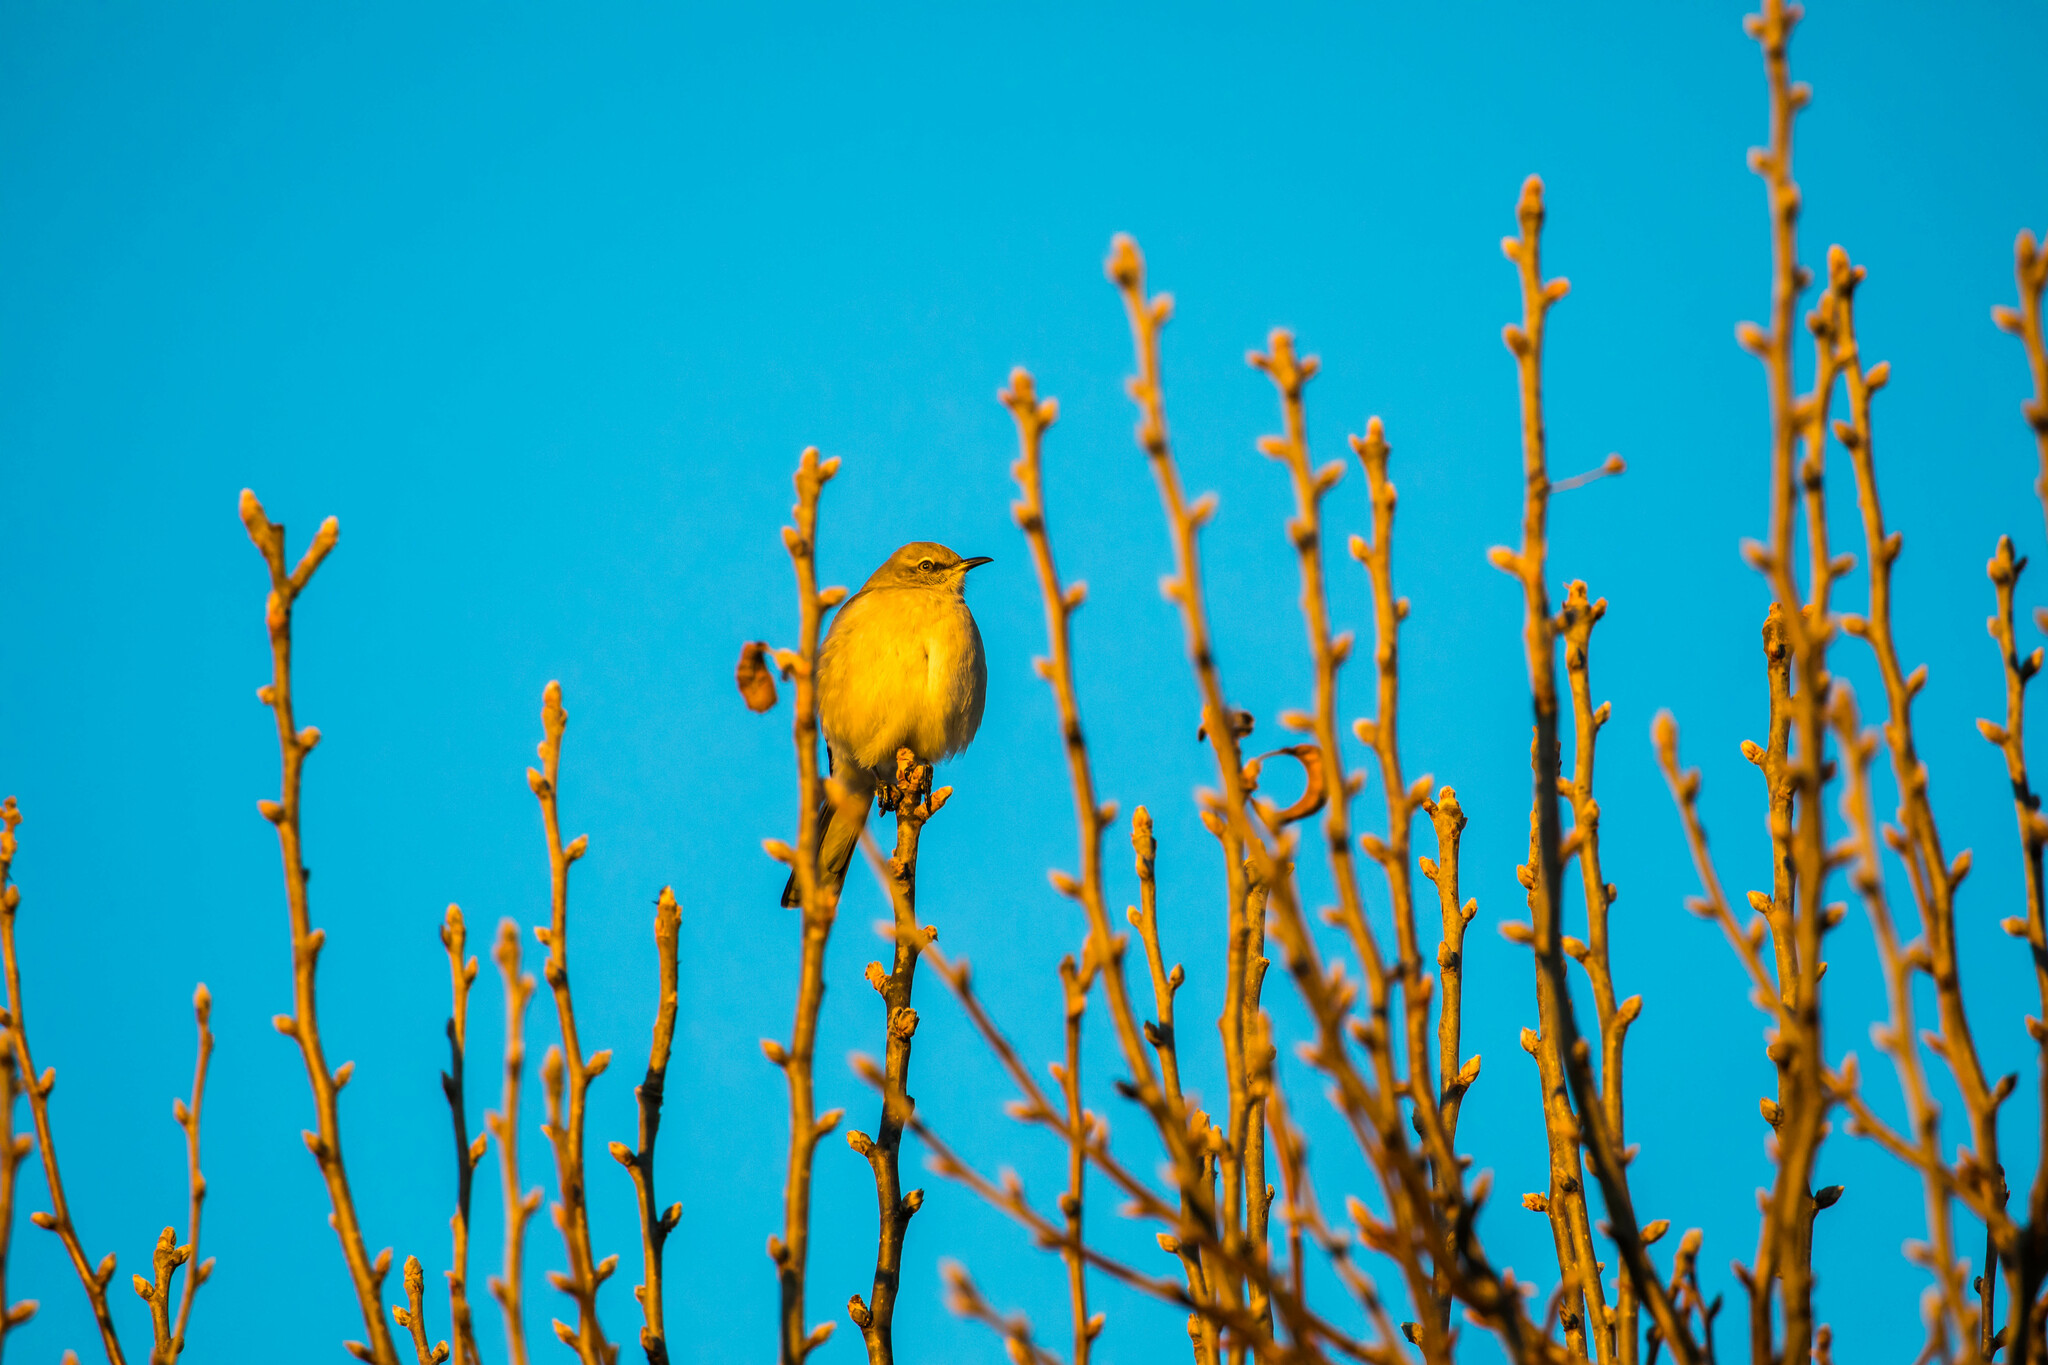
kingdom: Animalia
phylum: Chordata
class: Aves
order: Passeriformes
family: Mimidae
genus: Mimus
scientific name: Mimus polyglottos
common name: Northern mockingbird
